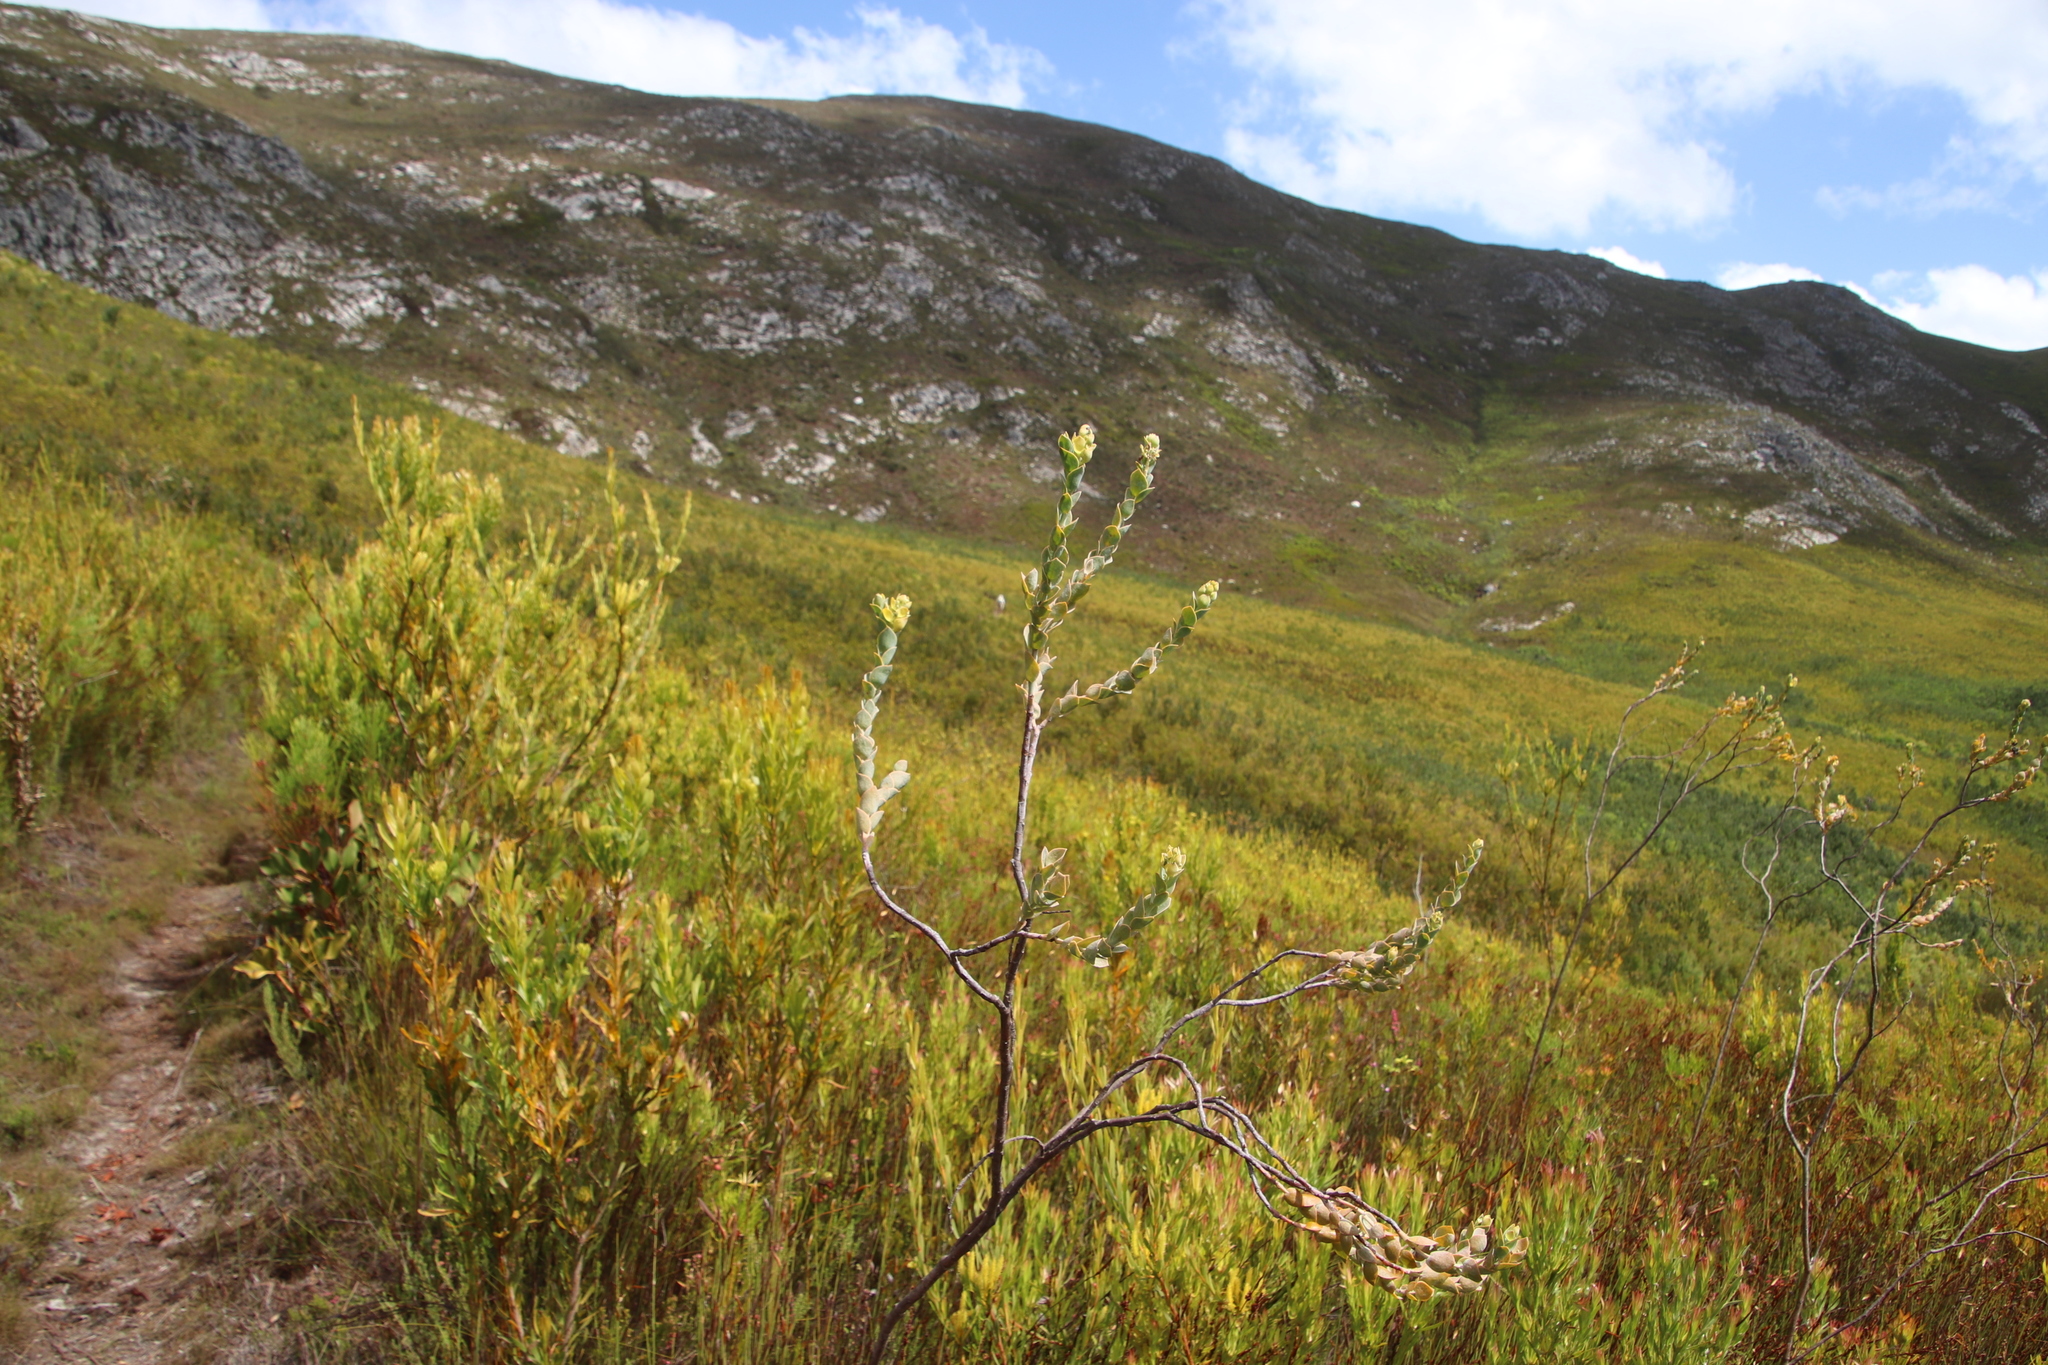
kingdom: Plantae
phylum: Tracheophyta
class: Magnoliopsida
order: Santalales
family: Thesiaceae
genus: Thesium
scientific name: Thesium euphorbioides
